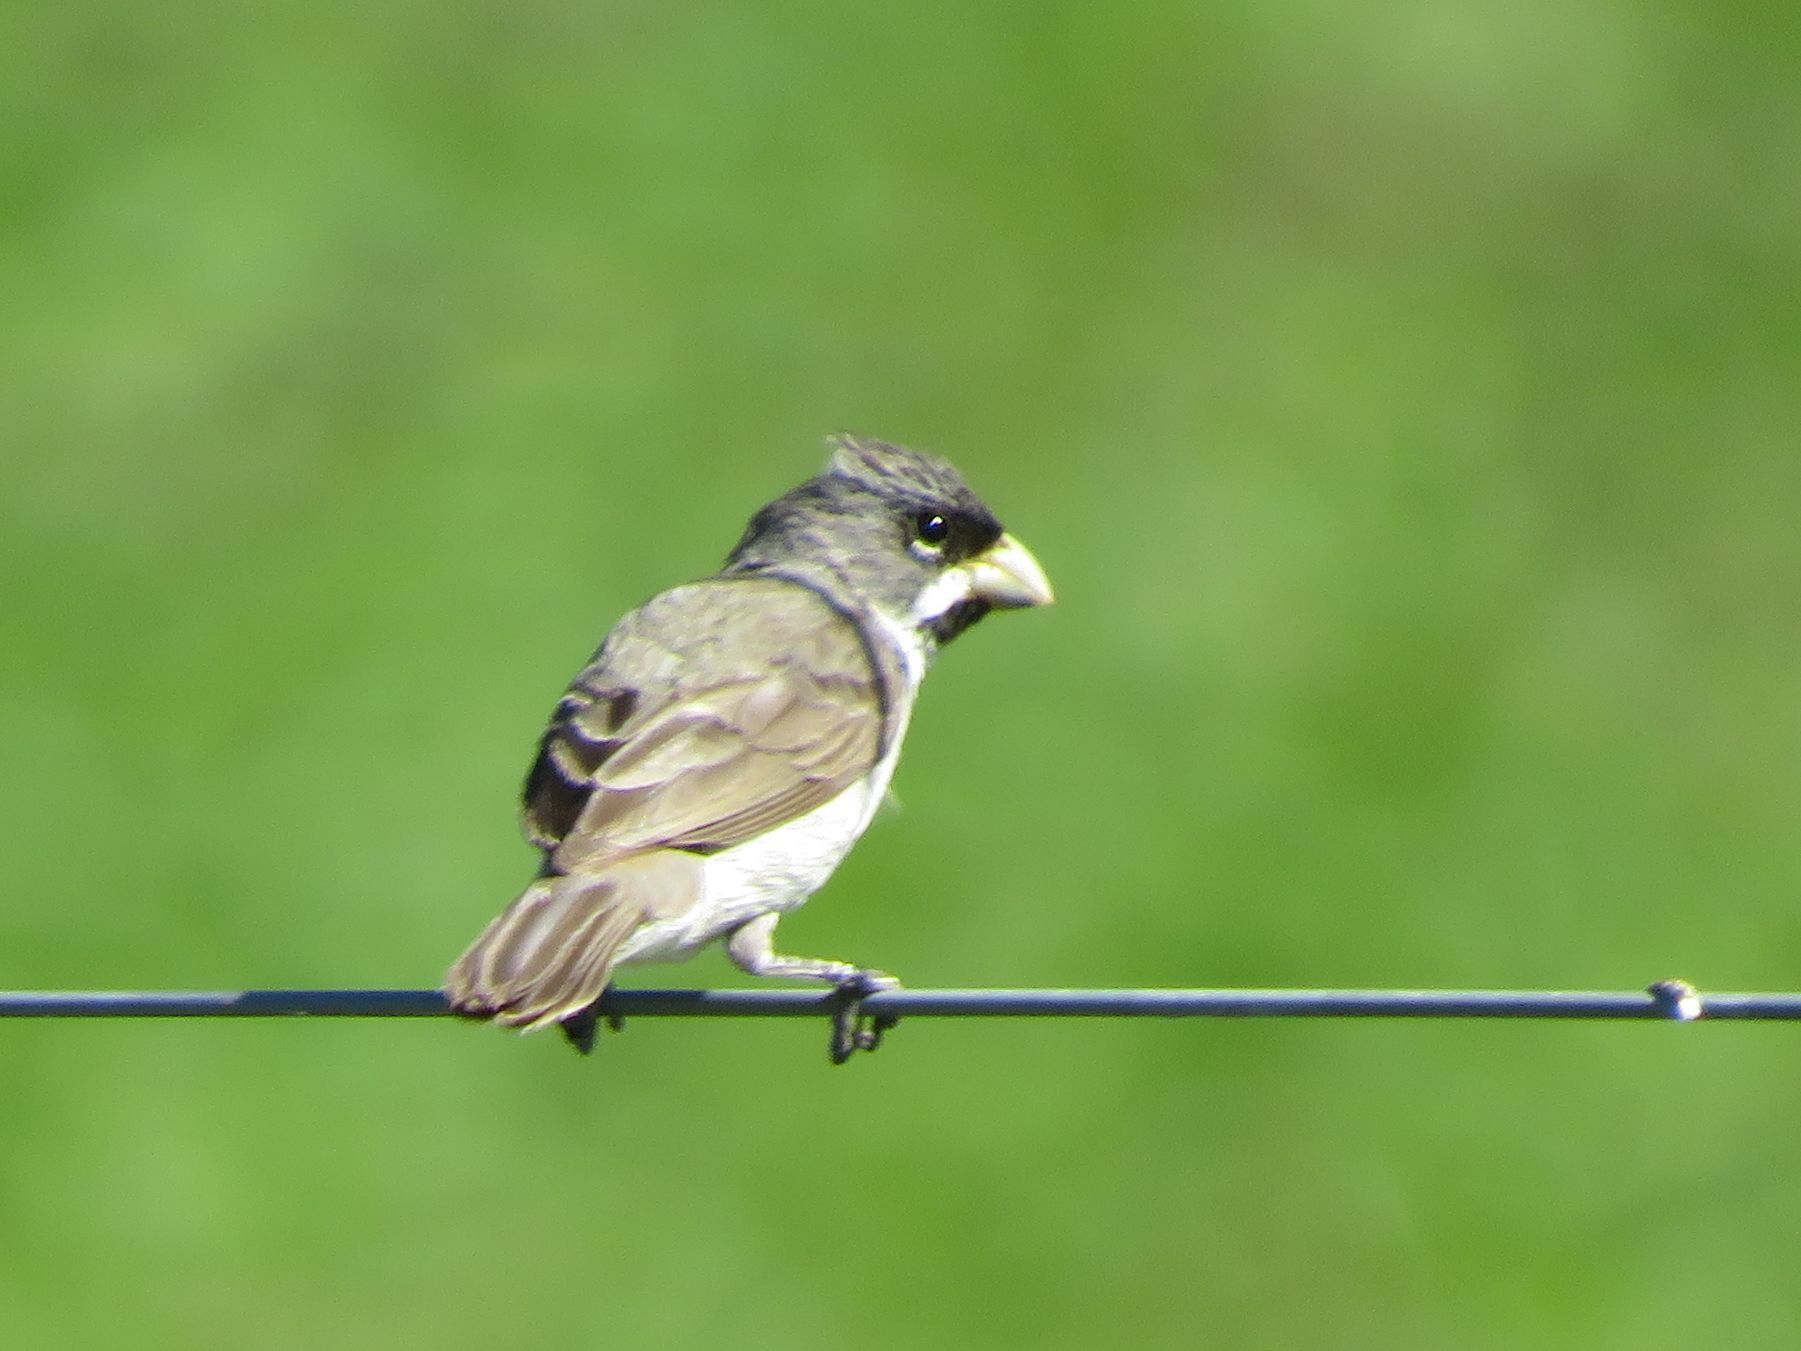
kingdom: Animalia
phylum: Chordata
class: Aves
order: Passeriformes
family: Thraupidae
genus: Sporophila
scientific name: Sporophila caerulescens
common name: Double-collared seedeater
